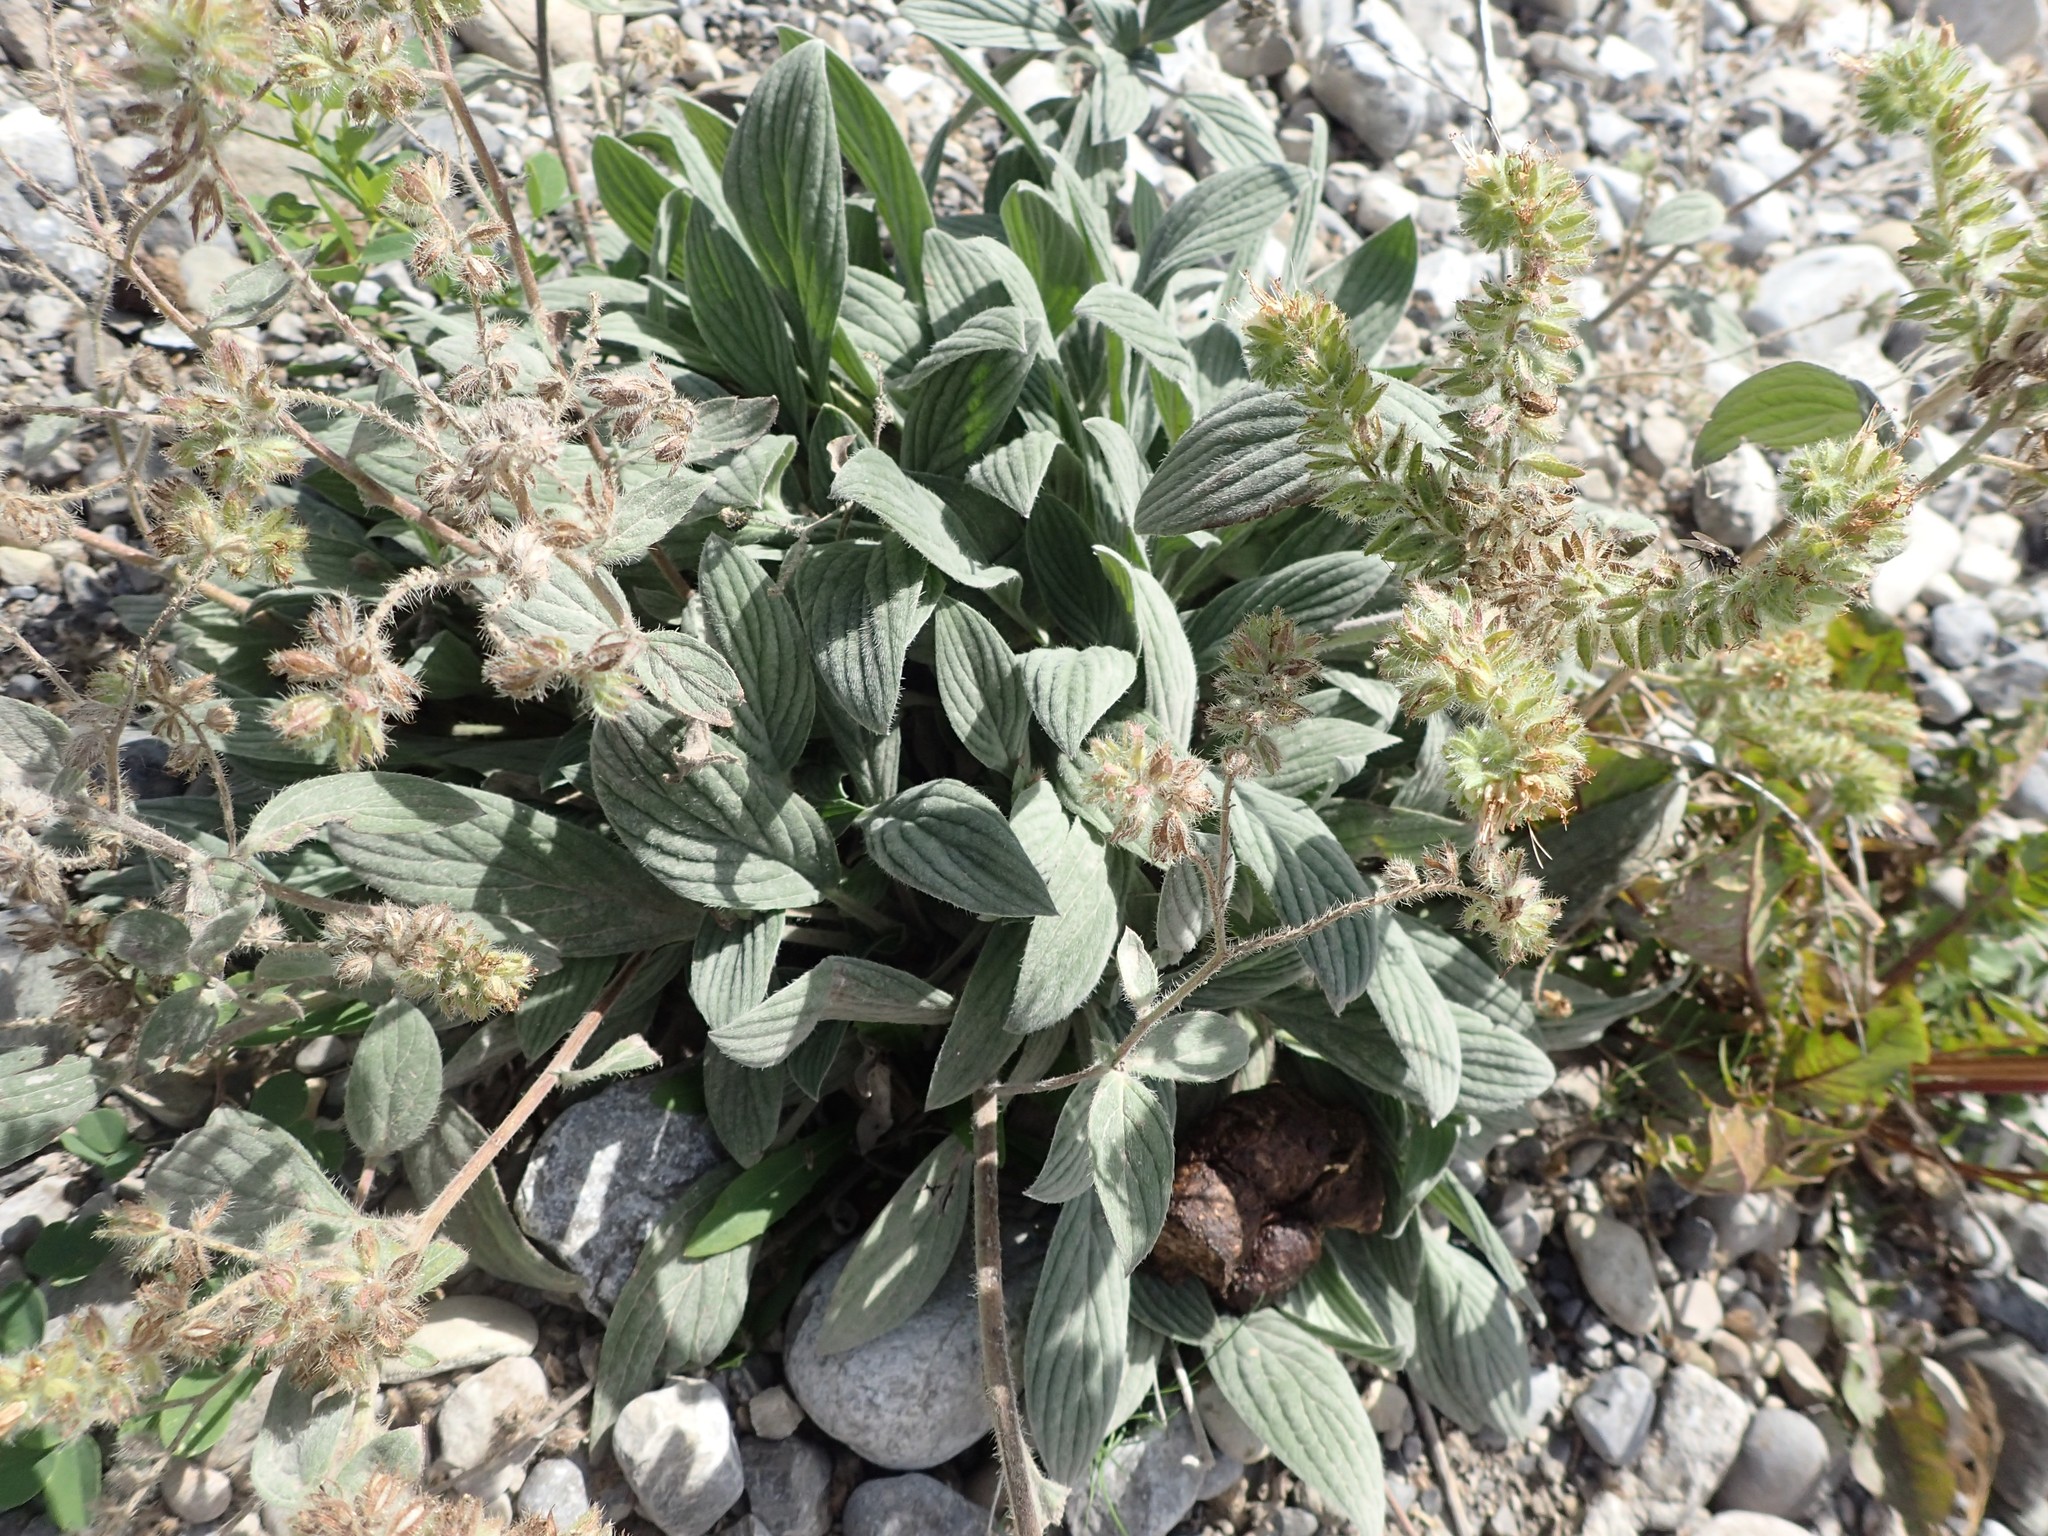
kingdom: Plantae
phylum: Tracheophyta
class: Magnoliopsida
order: Boraginales
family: Hydrophyllaceae
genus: Phacelia
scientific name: Phacelia hastata
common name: Silver-leaved phacelia
